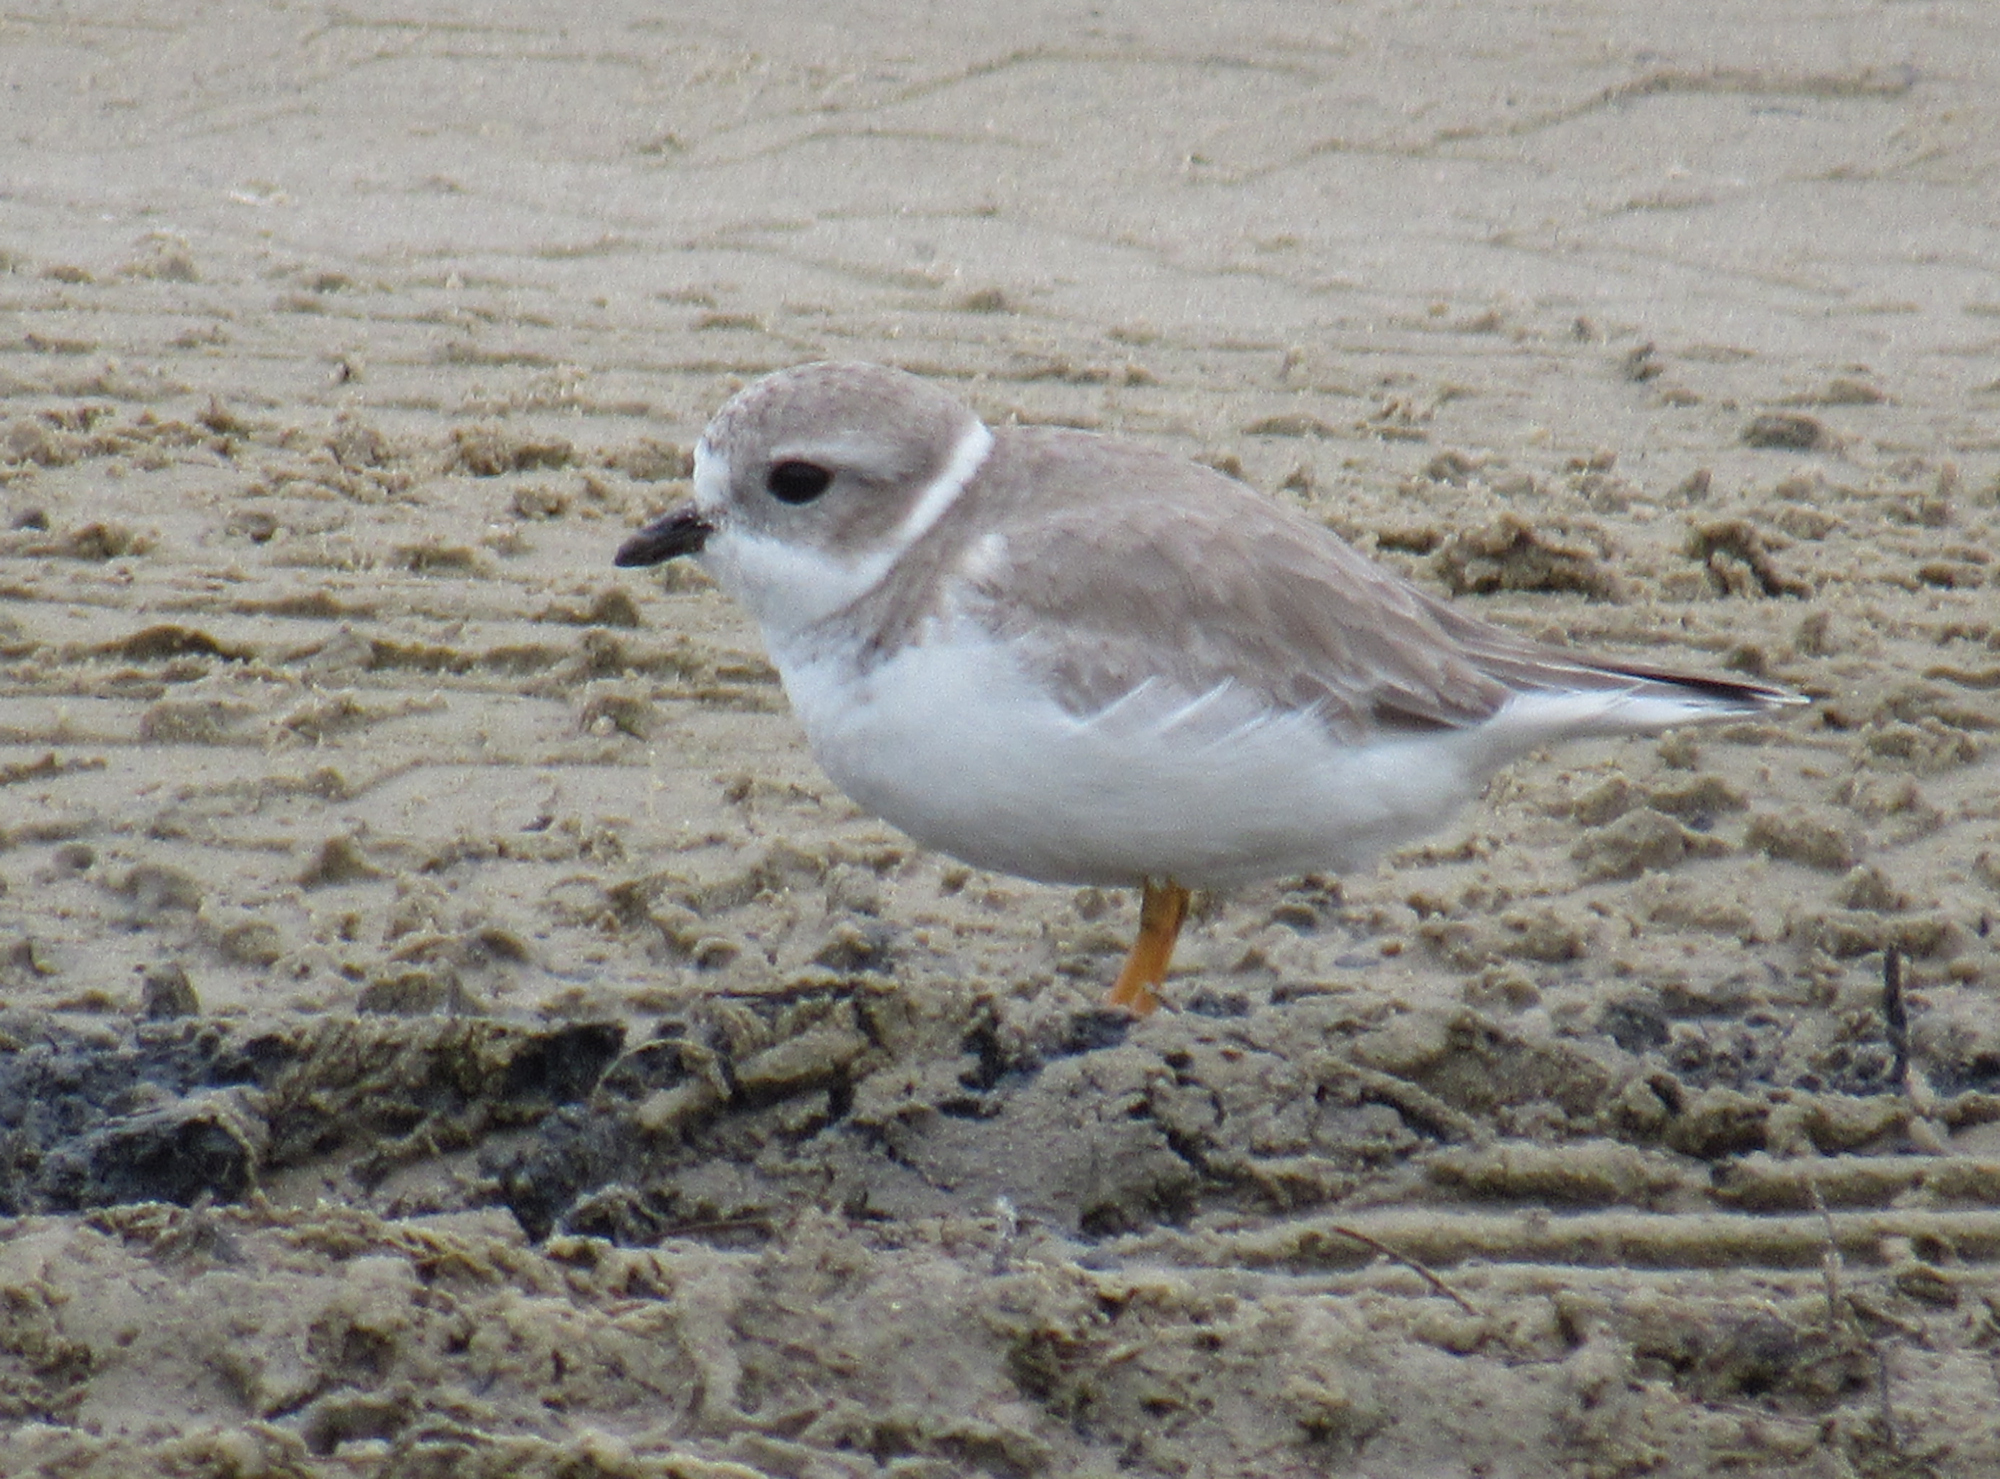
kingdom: Animalia
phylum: Chordata
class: Aves
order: Charadriiformes
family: Charadriidae
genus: Charadrius
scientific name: Charadrius melodus
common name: Piping plover
